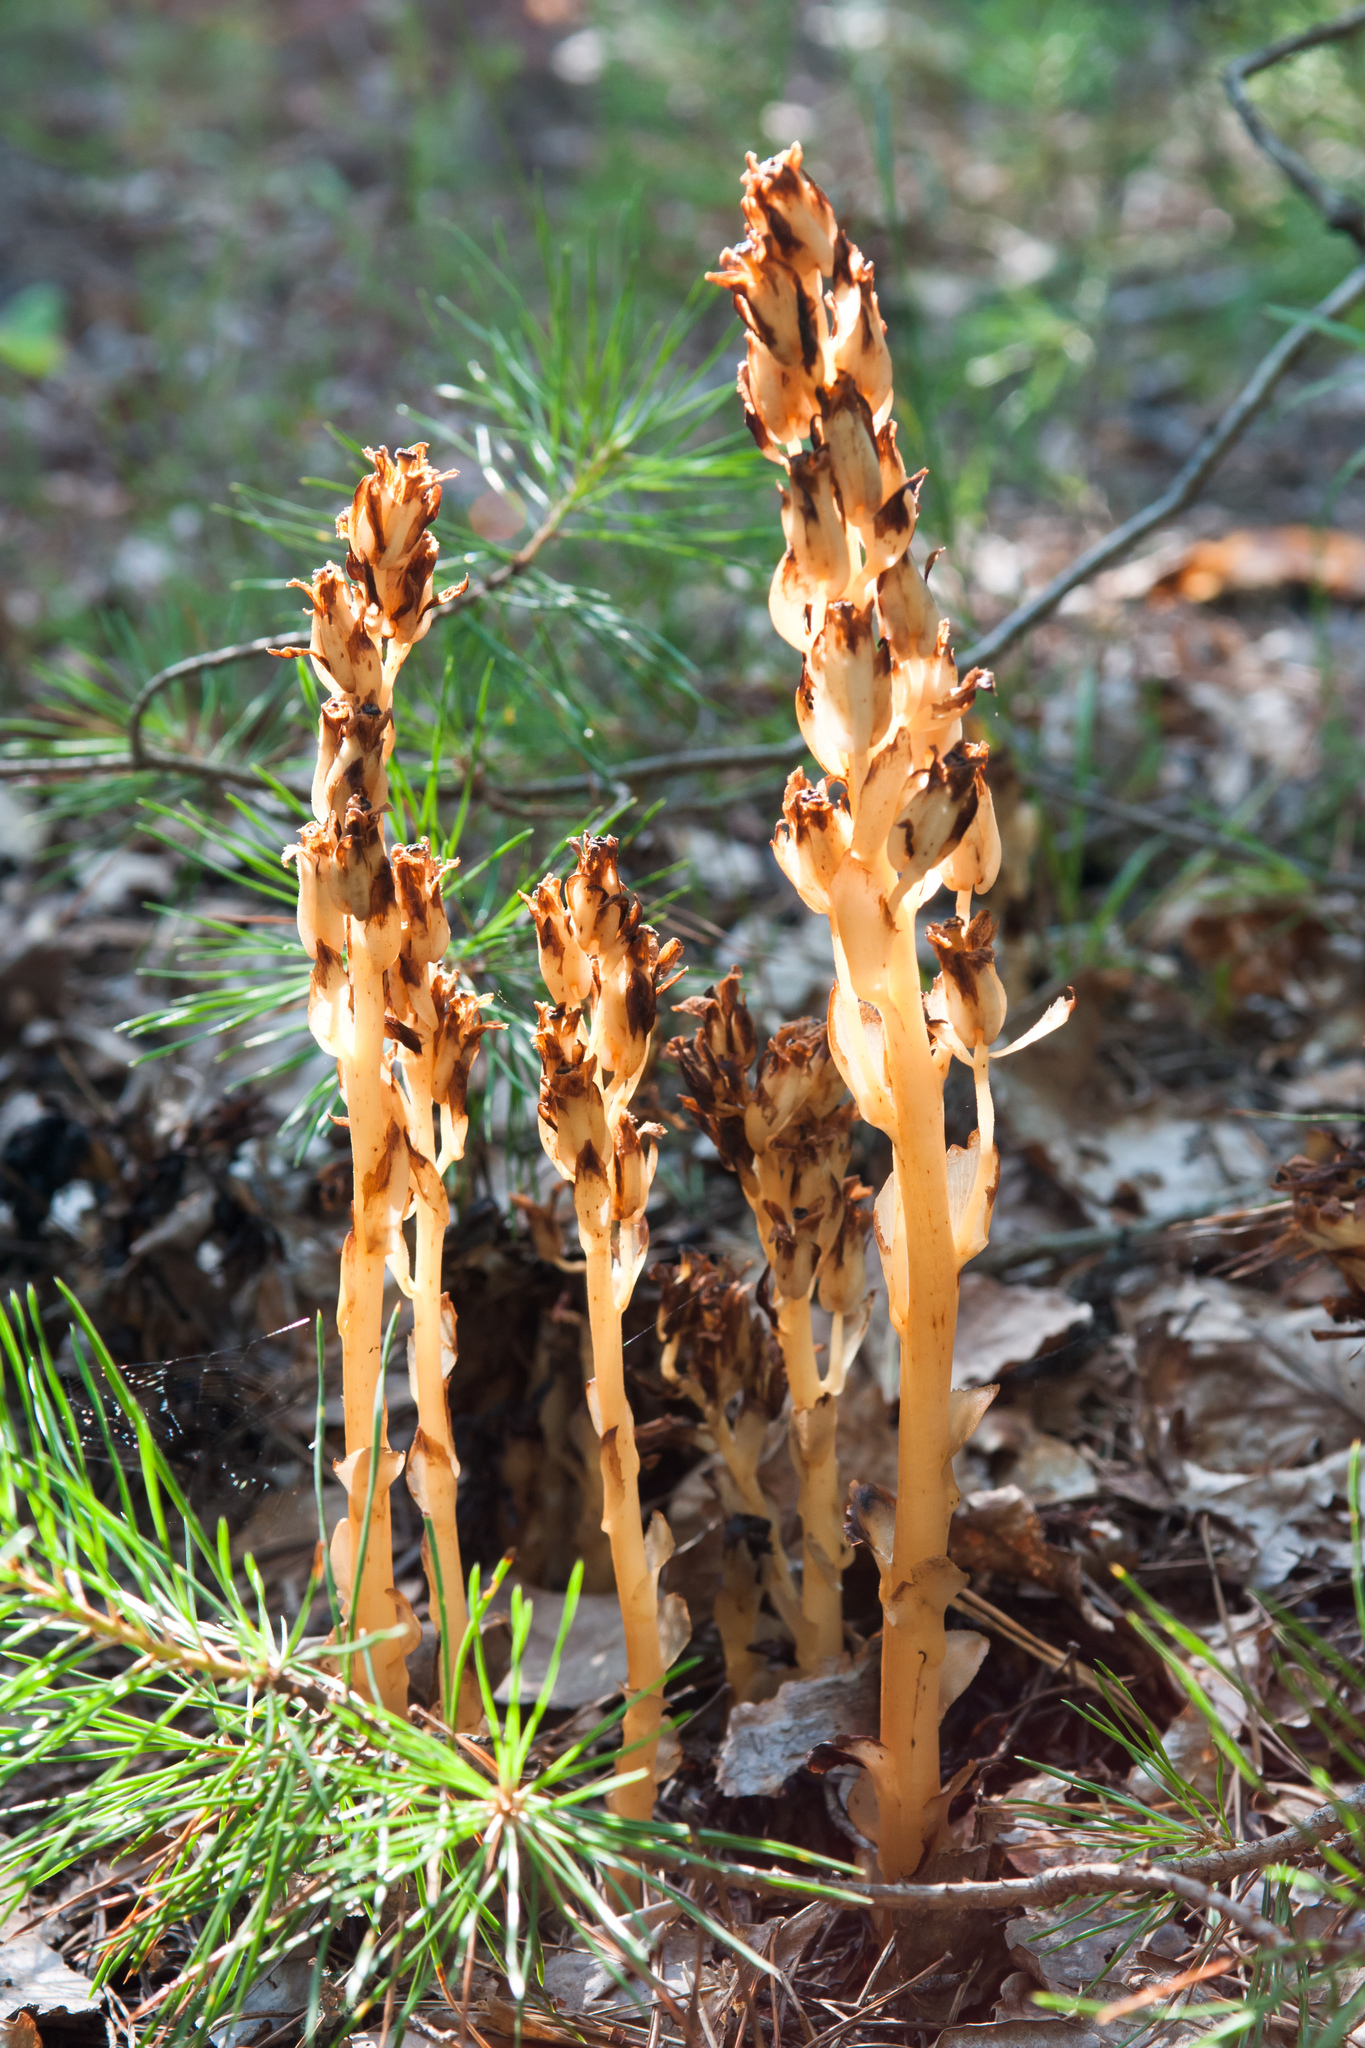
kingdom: Plantae
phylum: Tracheophyta
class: Magnoliopsida
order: Ericales
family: Ericaceae
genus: Hypopitys
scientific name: Hypopitys monotropa
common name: Yellow bird's-nest
